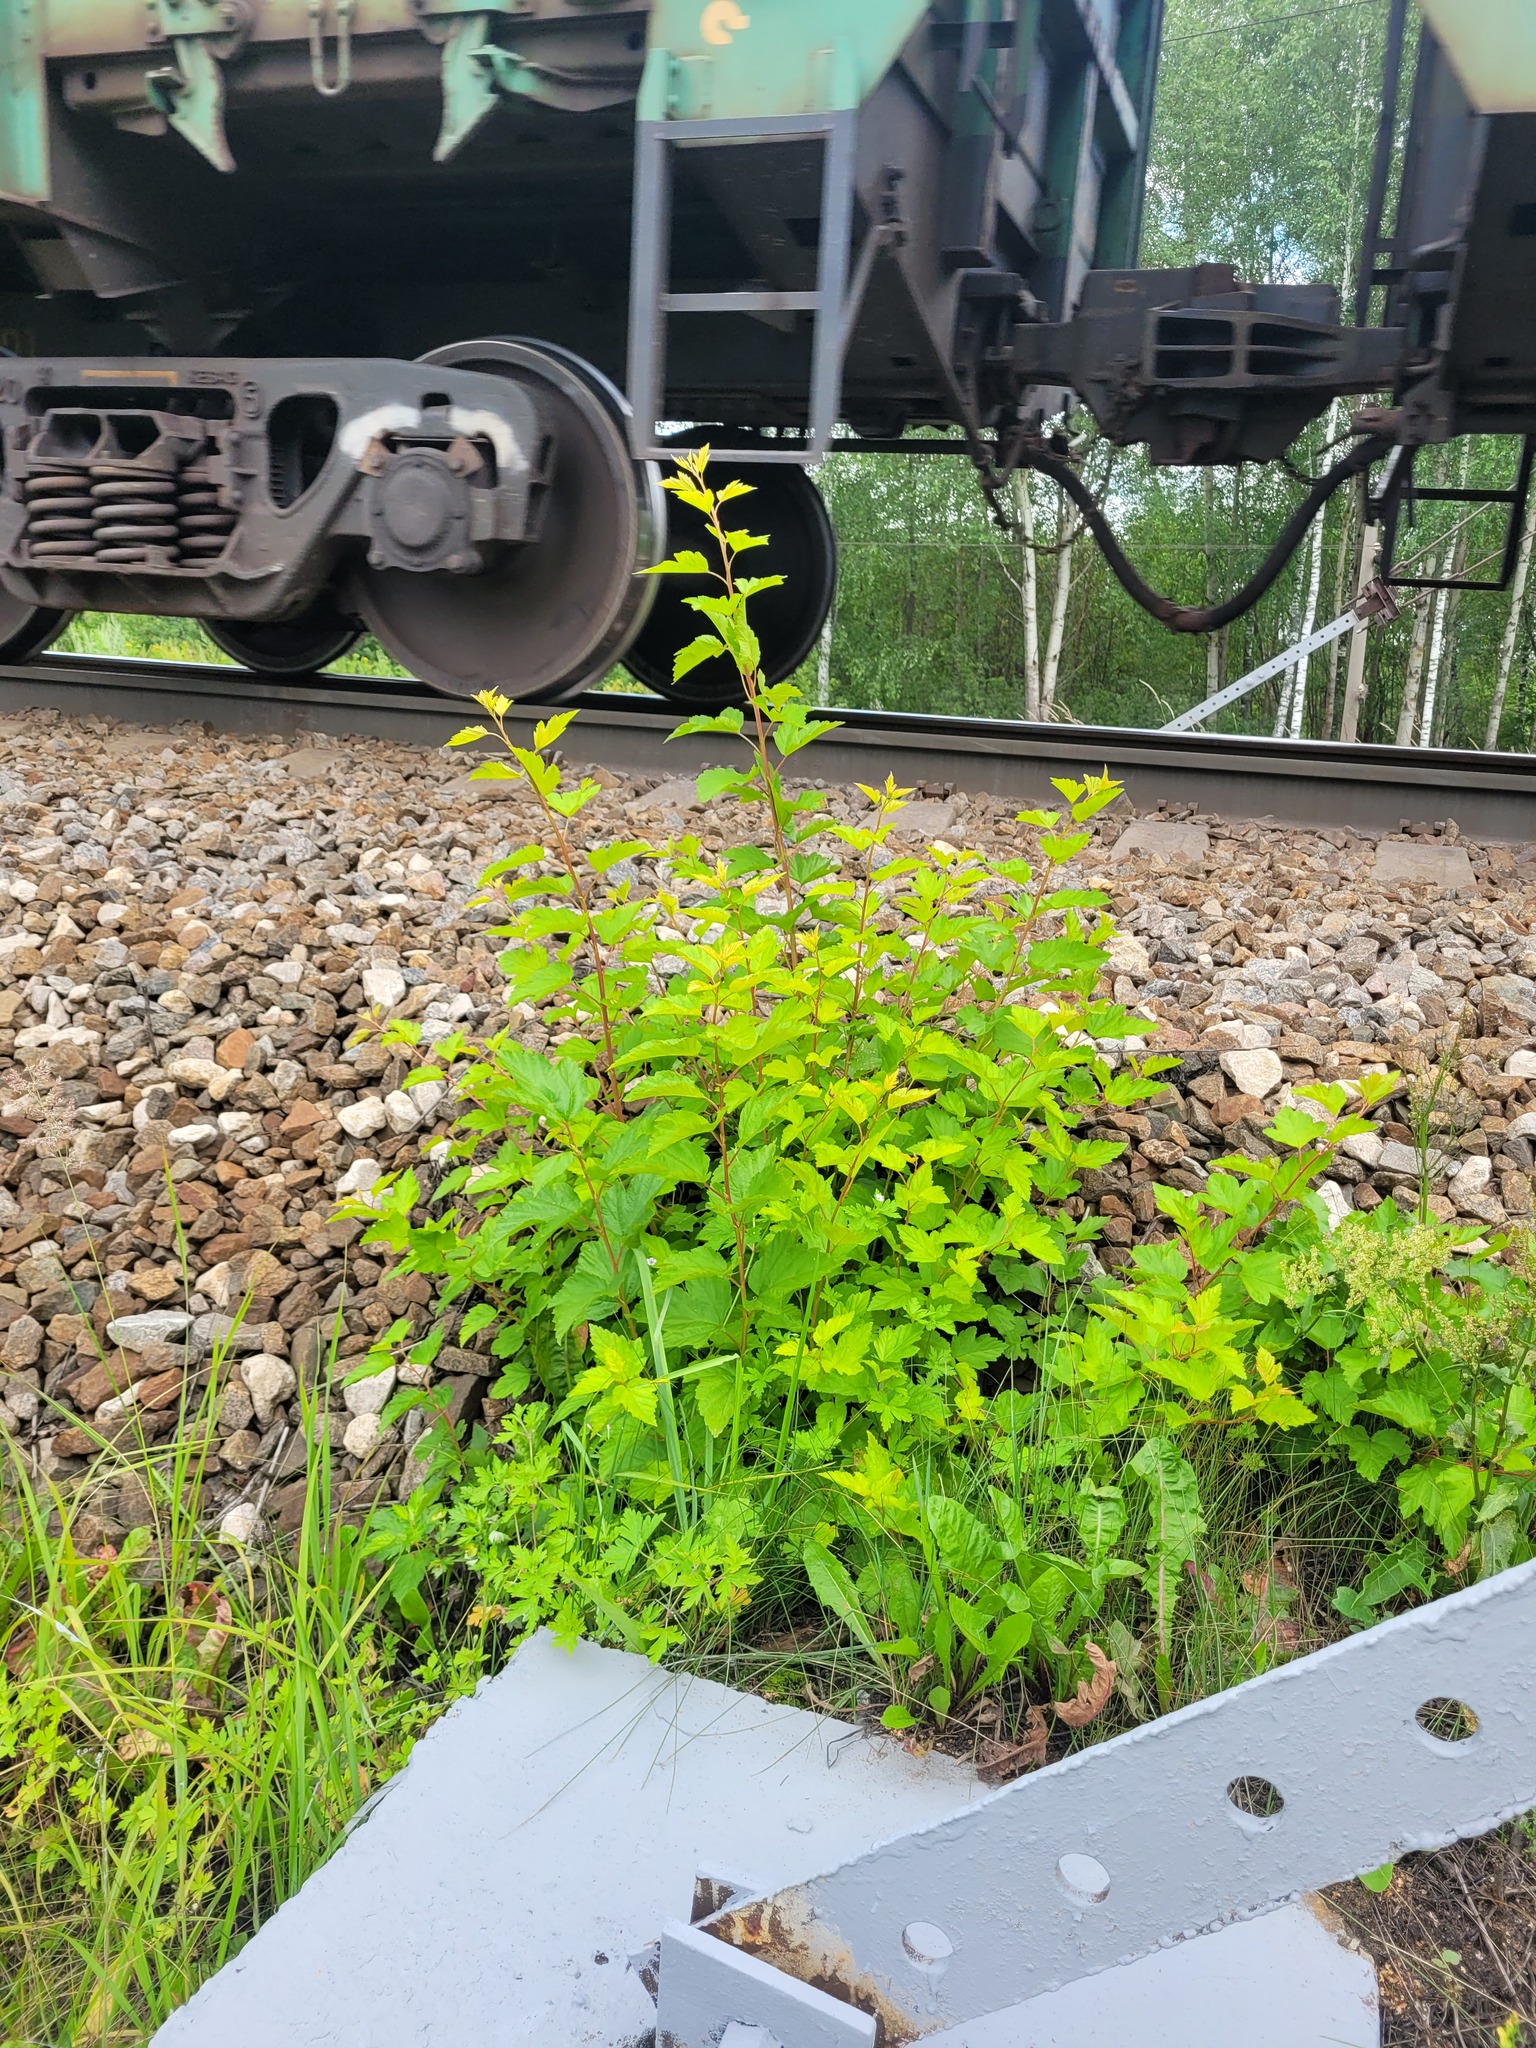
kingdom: Plantae
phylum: Tracheophyta
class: Magnoliopsida
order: Rosales
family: Rosaceae
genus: Physocarpus
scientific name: Physocarpus opulifolius
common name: Ninebark
